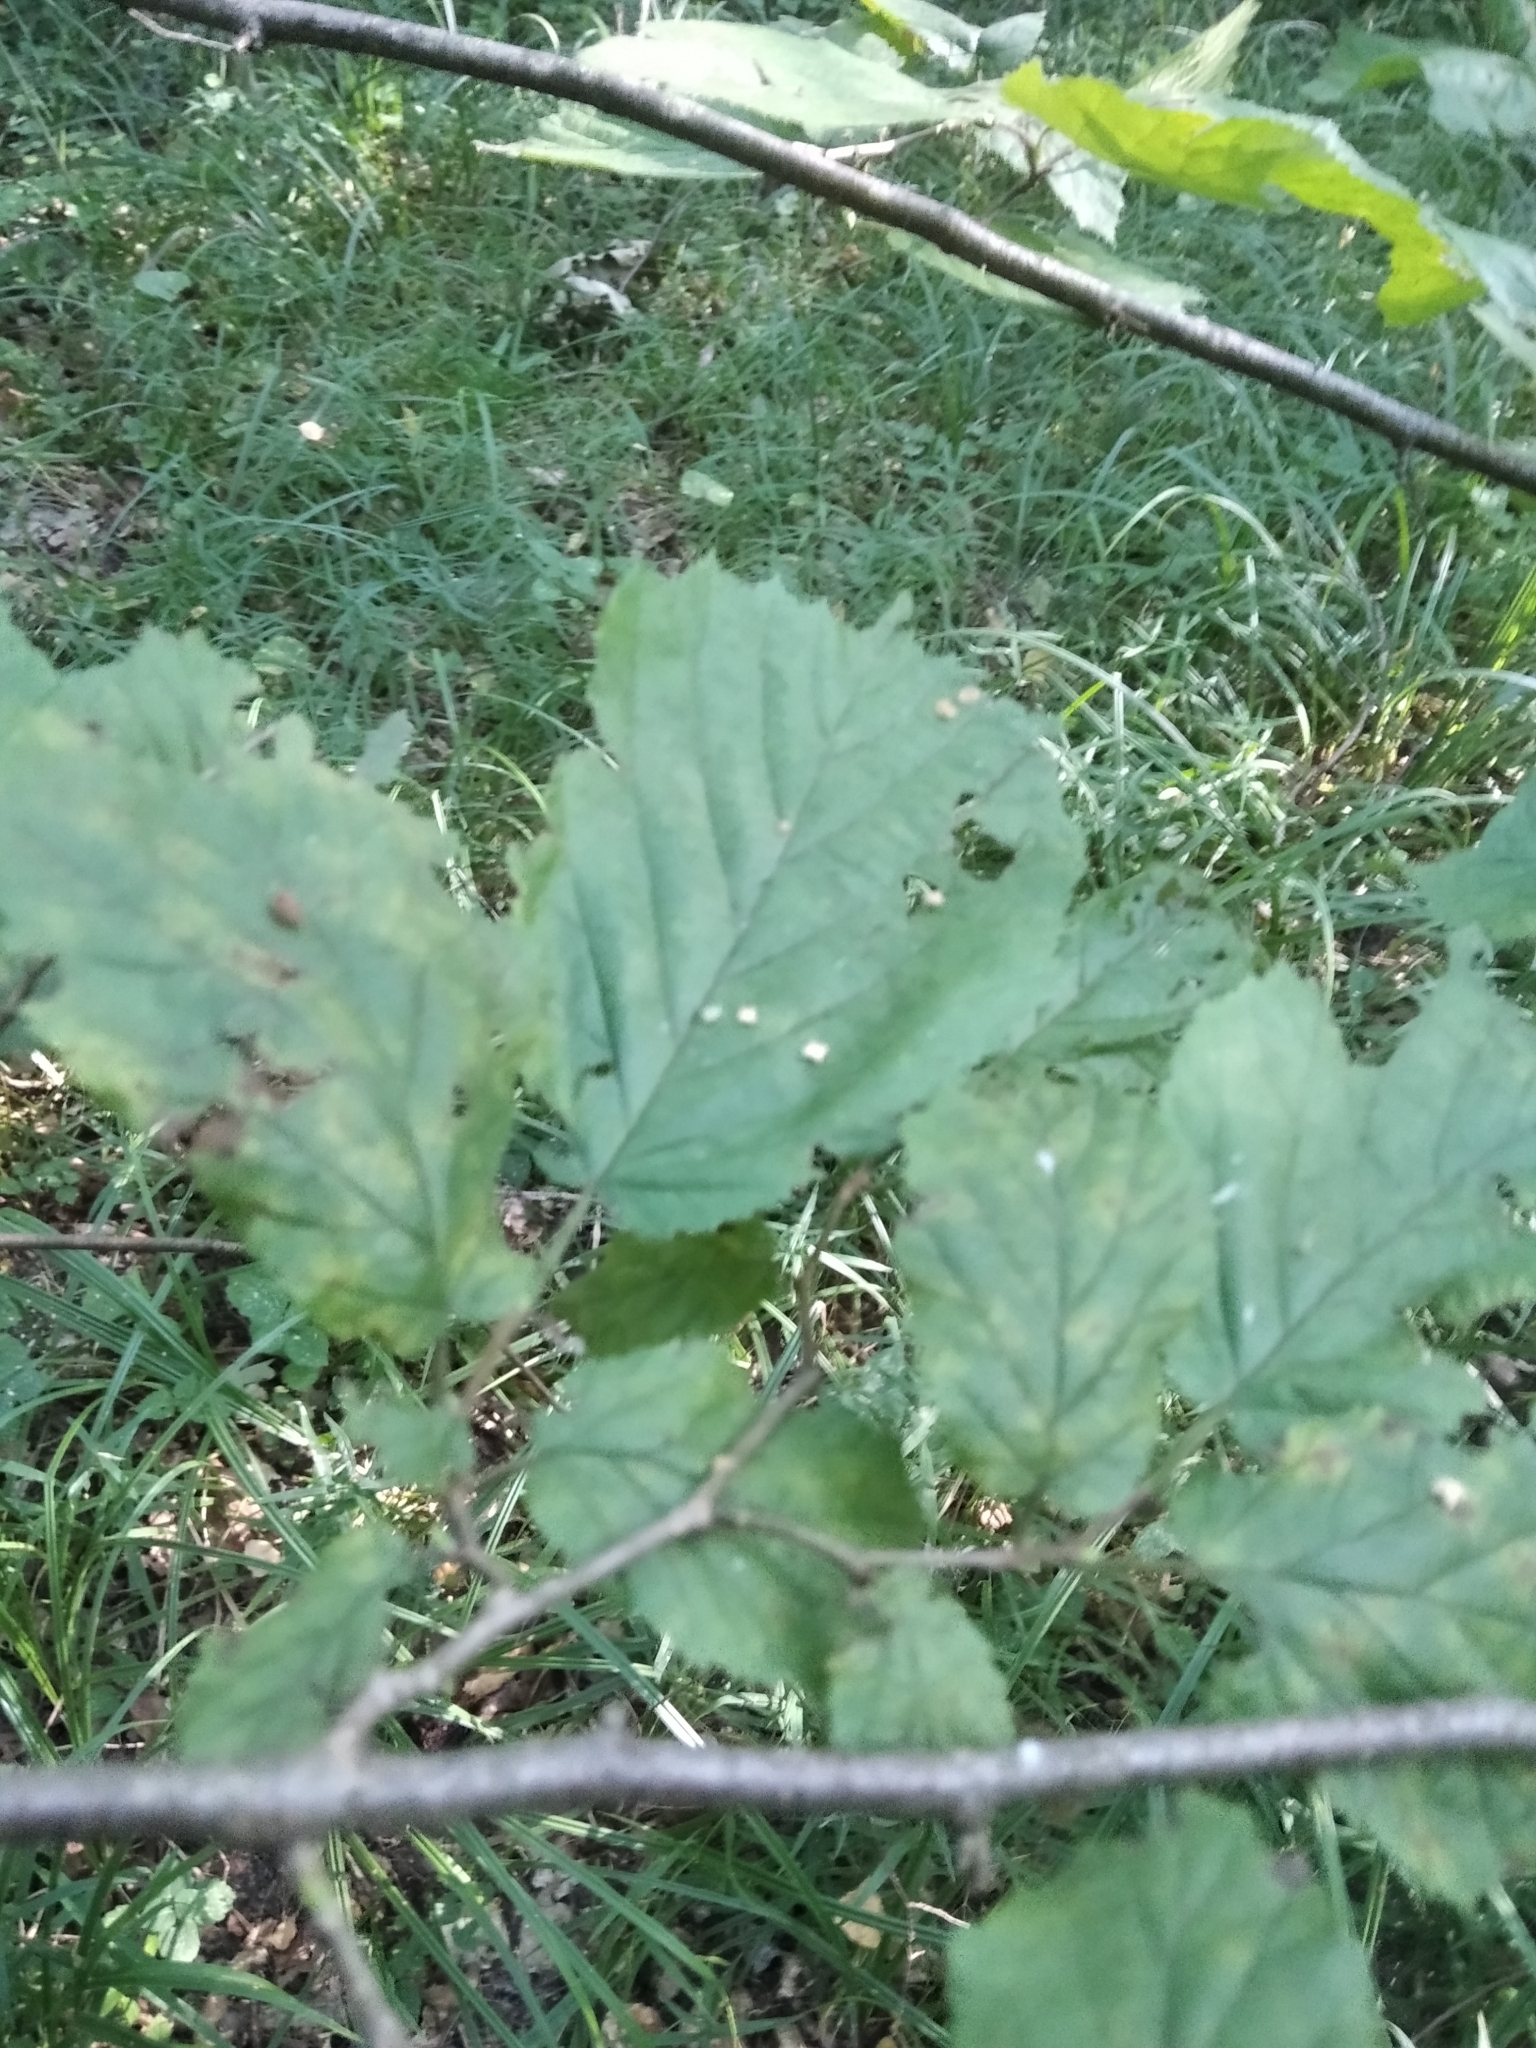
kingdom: Plantae
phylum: Tracheophyta
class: Magnoliopsida
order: Fagales
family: Betulaceae
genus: Corylus
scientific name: Corylus avellana
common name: European hazel
